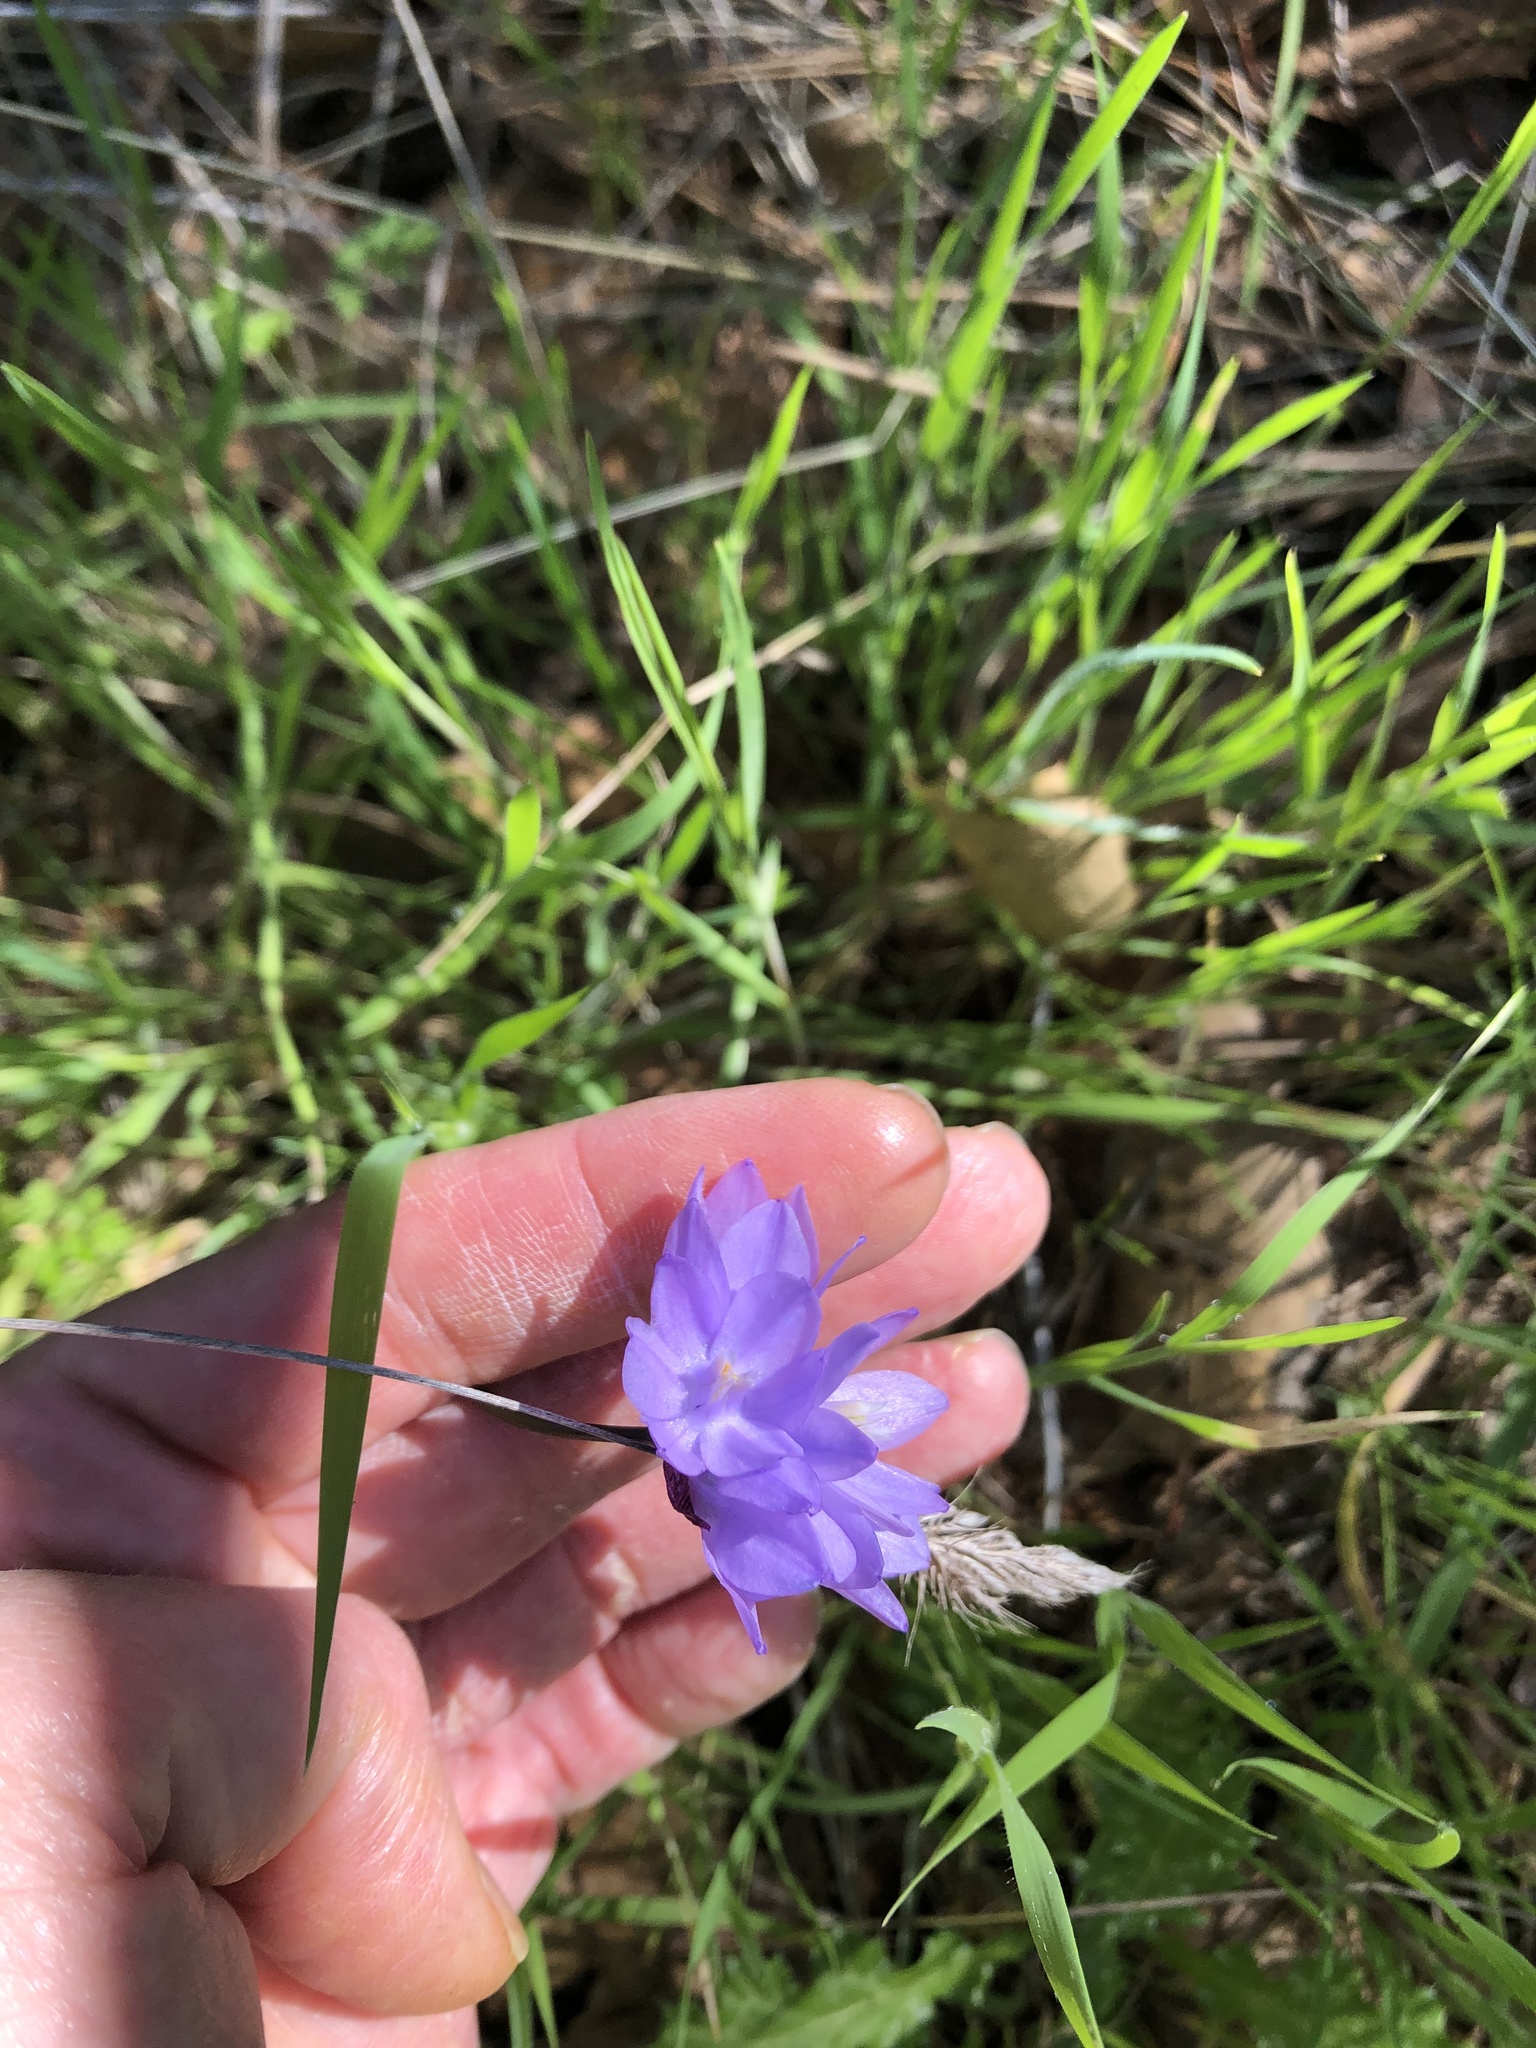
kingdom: Plantae
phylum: Tracheophyta
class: Liliopsida
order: Asparagales
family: Asparagaceae
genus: Dipterostemon
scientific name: Dipterostemon capitatus
